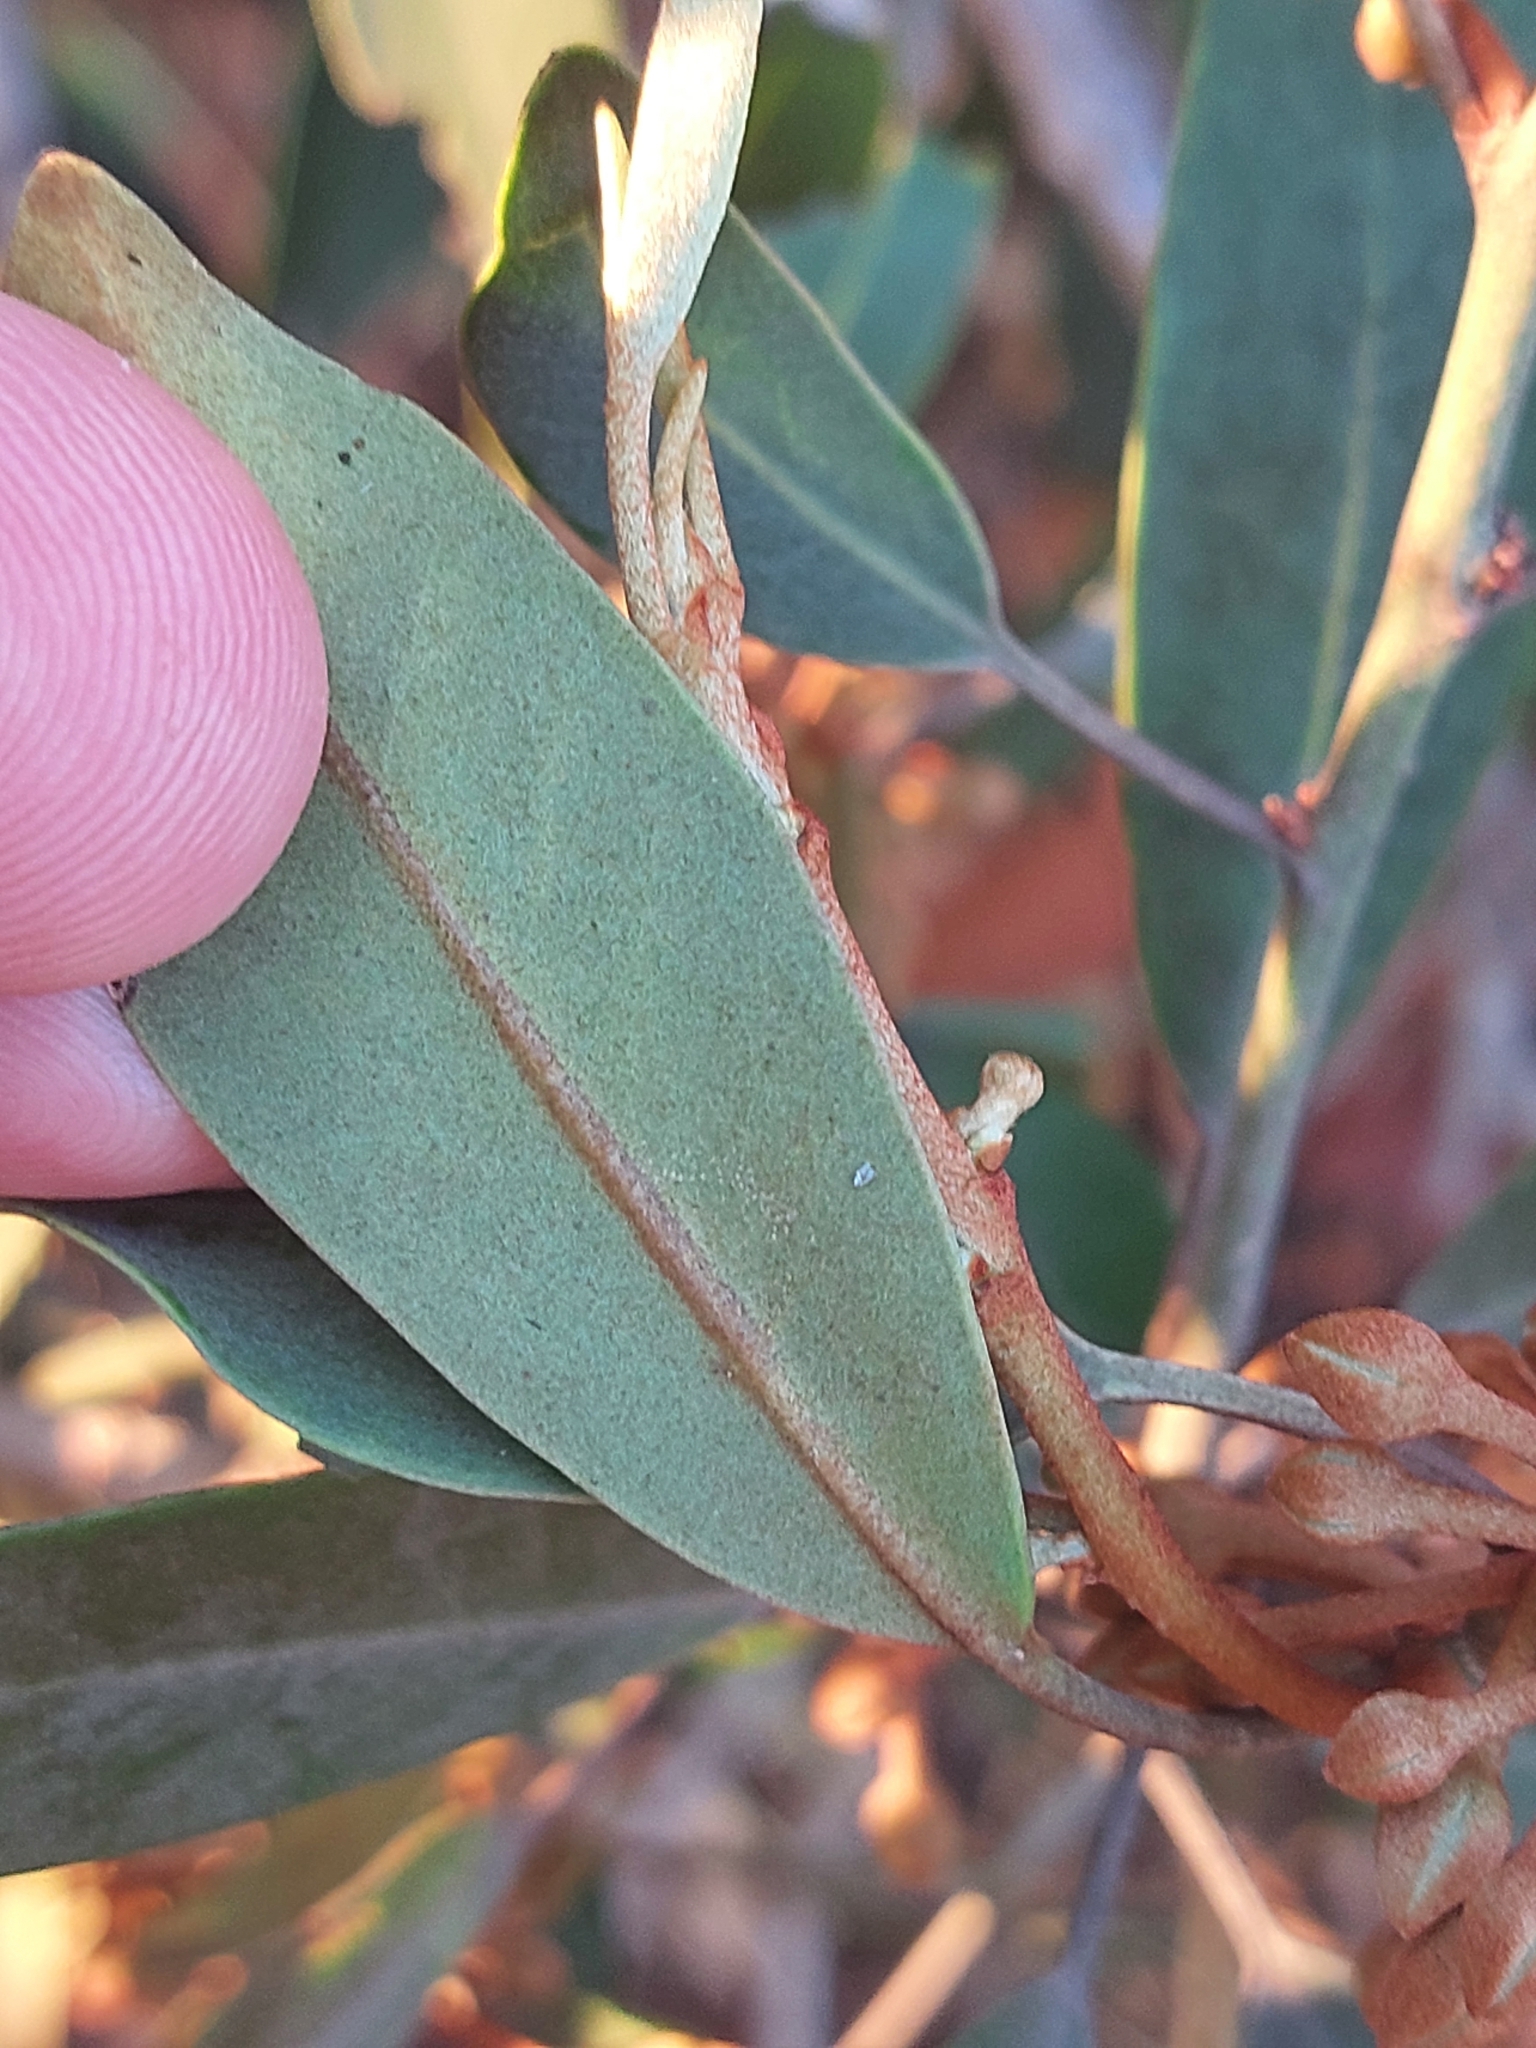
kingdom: Plantae
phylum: Tracheophyta
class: Magnoliopsida
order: Malpighiales
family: Euphorbiaceae
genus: Croton
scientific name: Croton gratissimus
